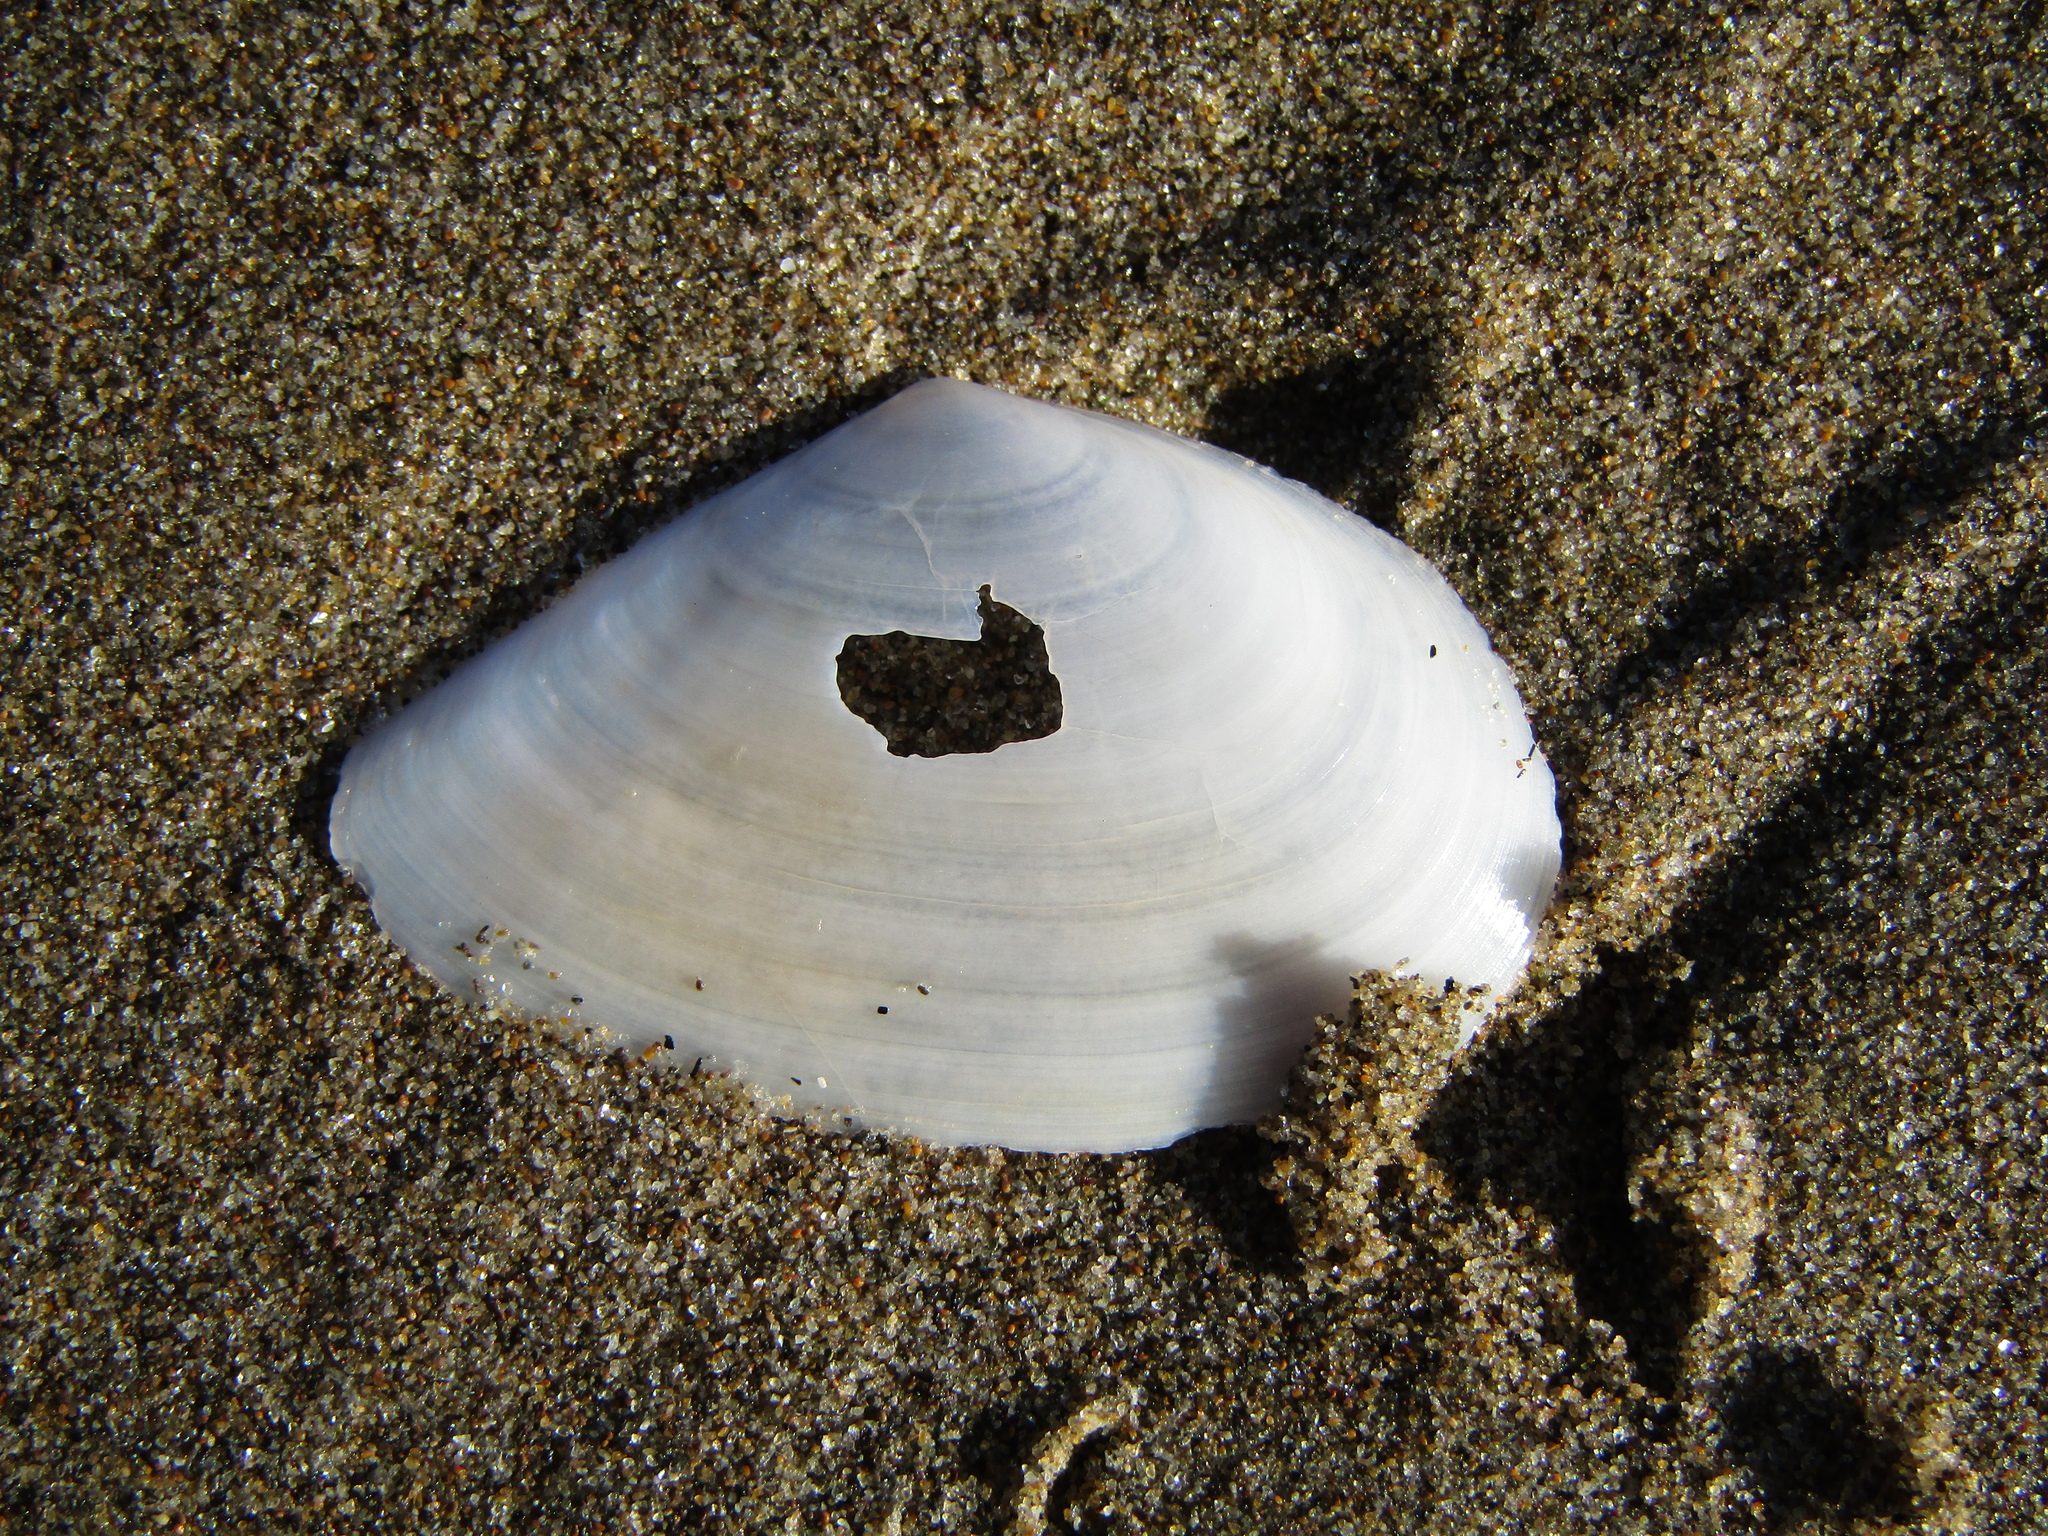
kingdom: Animalia
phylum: Mollusca
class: Bivalvia
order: Cardiida
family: Tellinidae
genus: Bartschicoma
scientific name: Bartschicoma edgari
